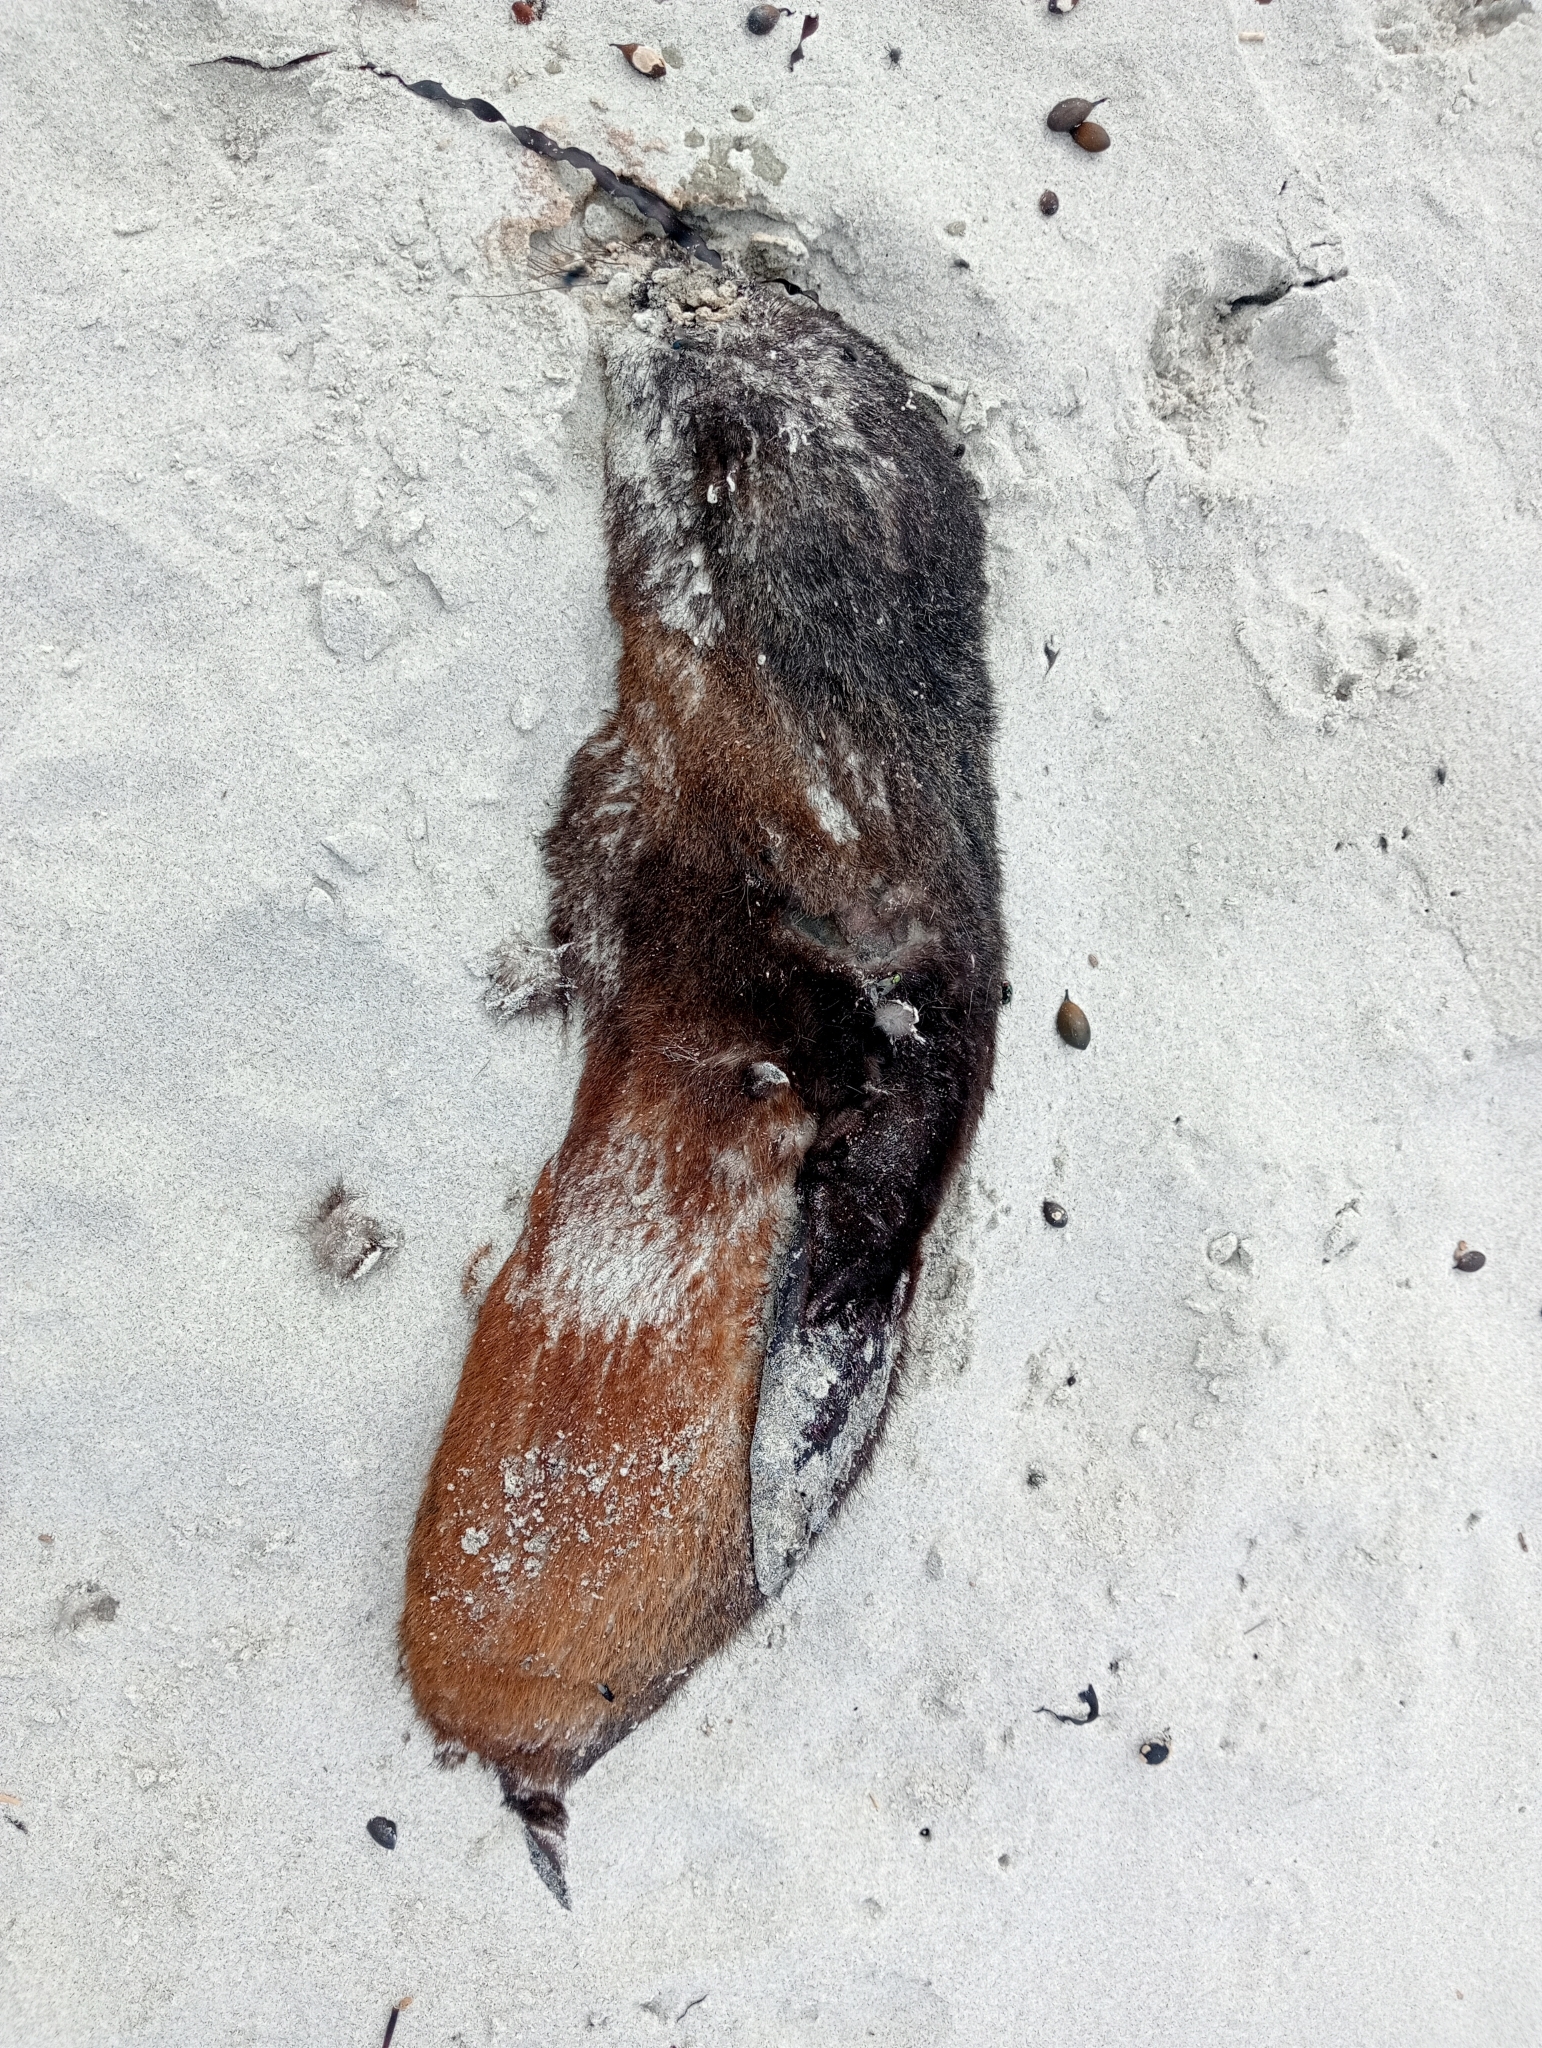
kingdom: Animalia
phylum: Chordata
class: Mammalia
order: Carnivora
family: Otariidae
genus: Arctocephalus
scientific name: Arctocephalus forsteri
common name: New zealand fur seal
